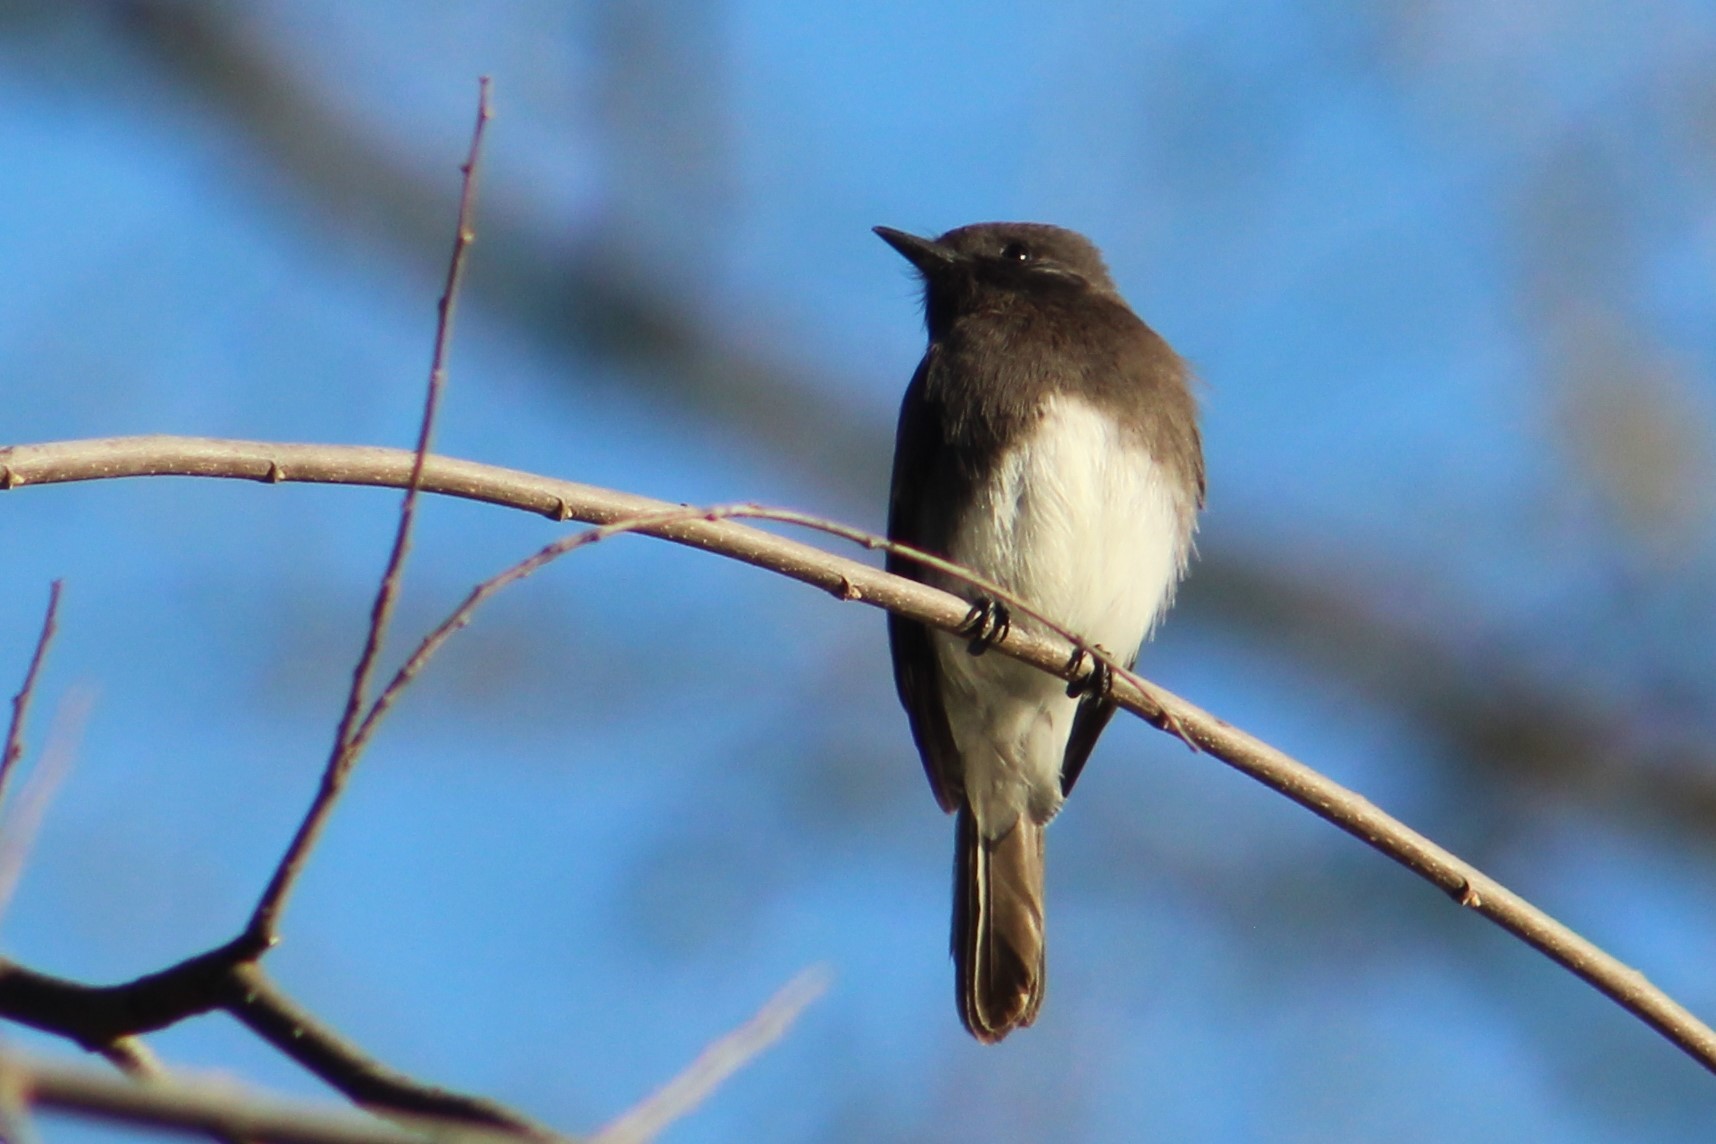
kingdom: Animalia
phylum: Chordata
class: Aves
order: Passeriformes
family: Tyrannidae
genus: Sayornis
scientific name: Sayornis nigricans
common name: Black phoebe
